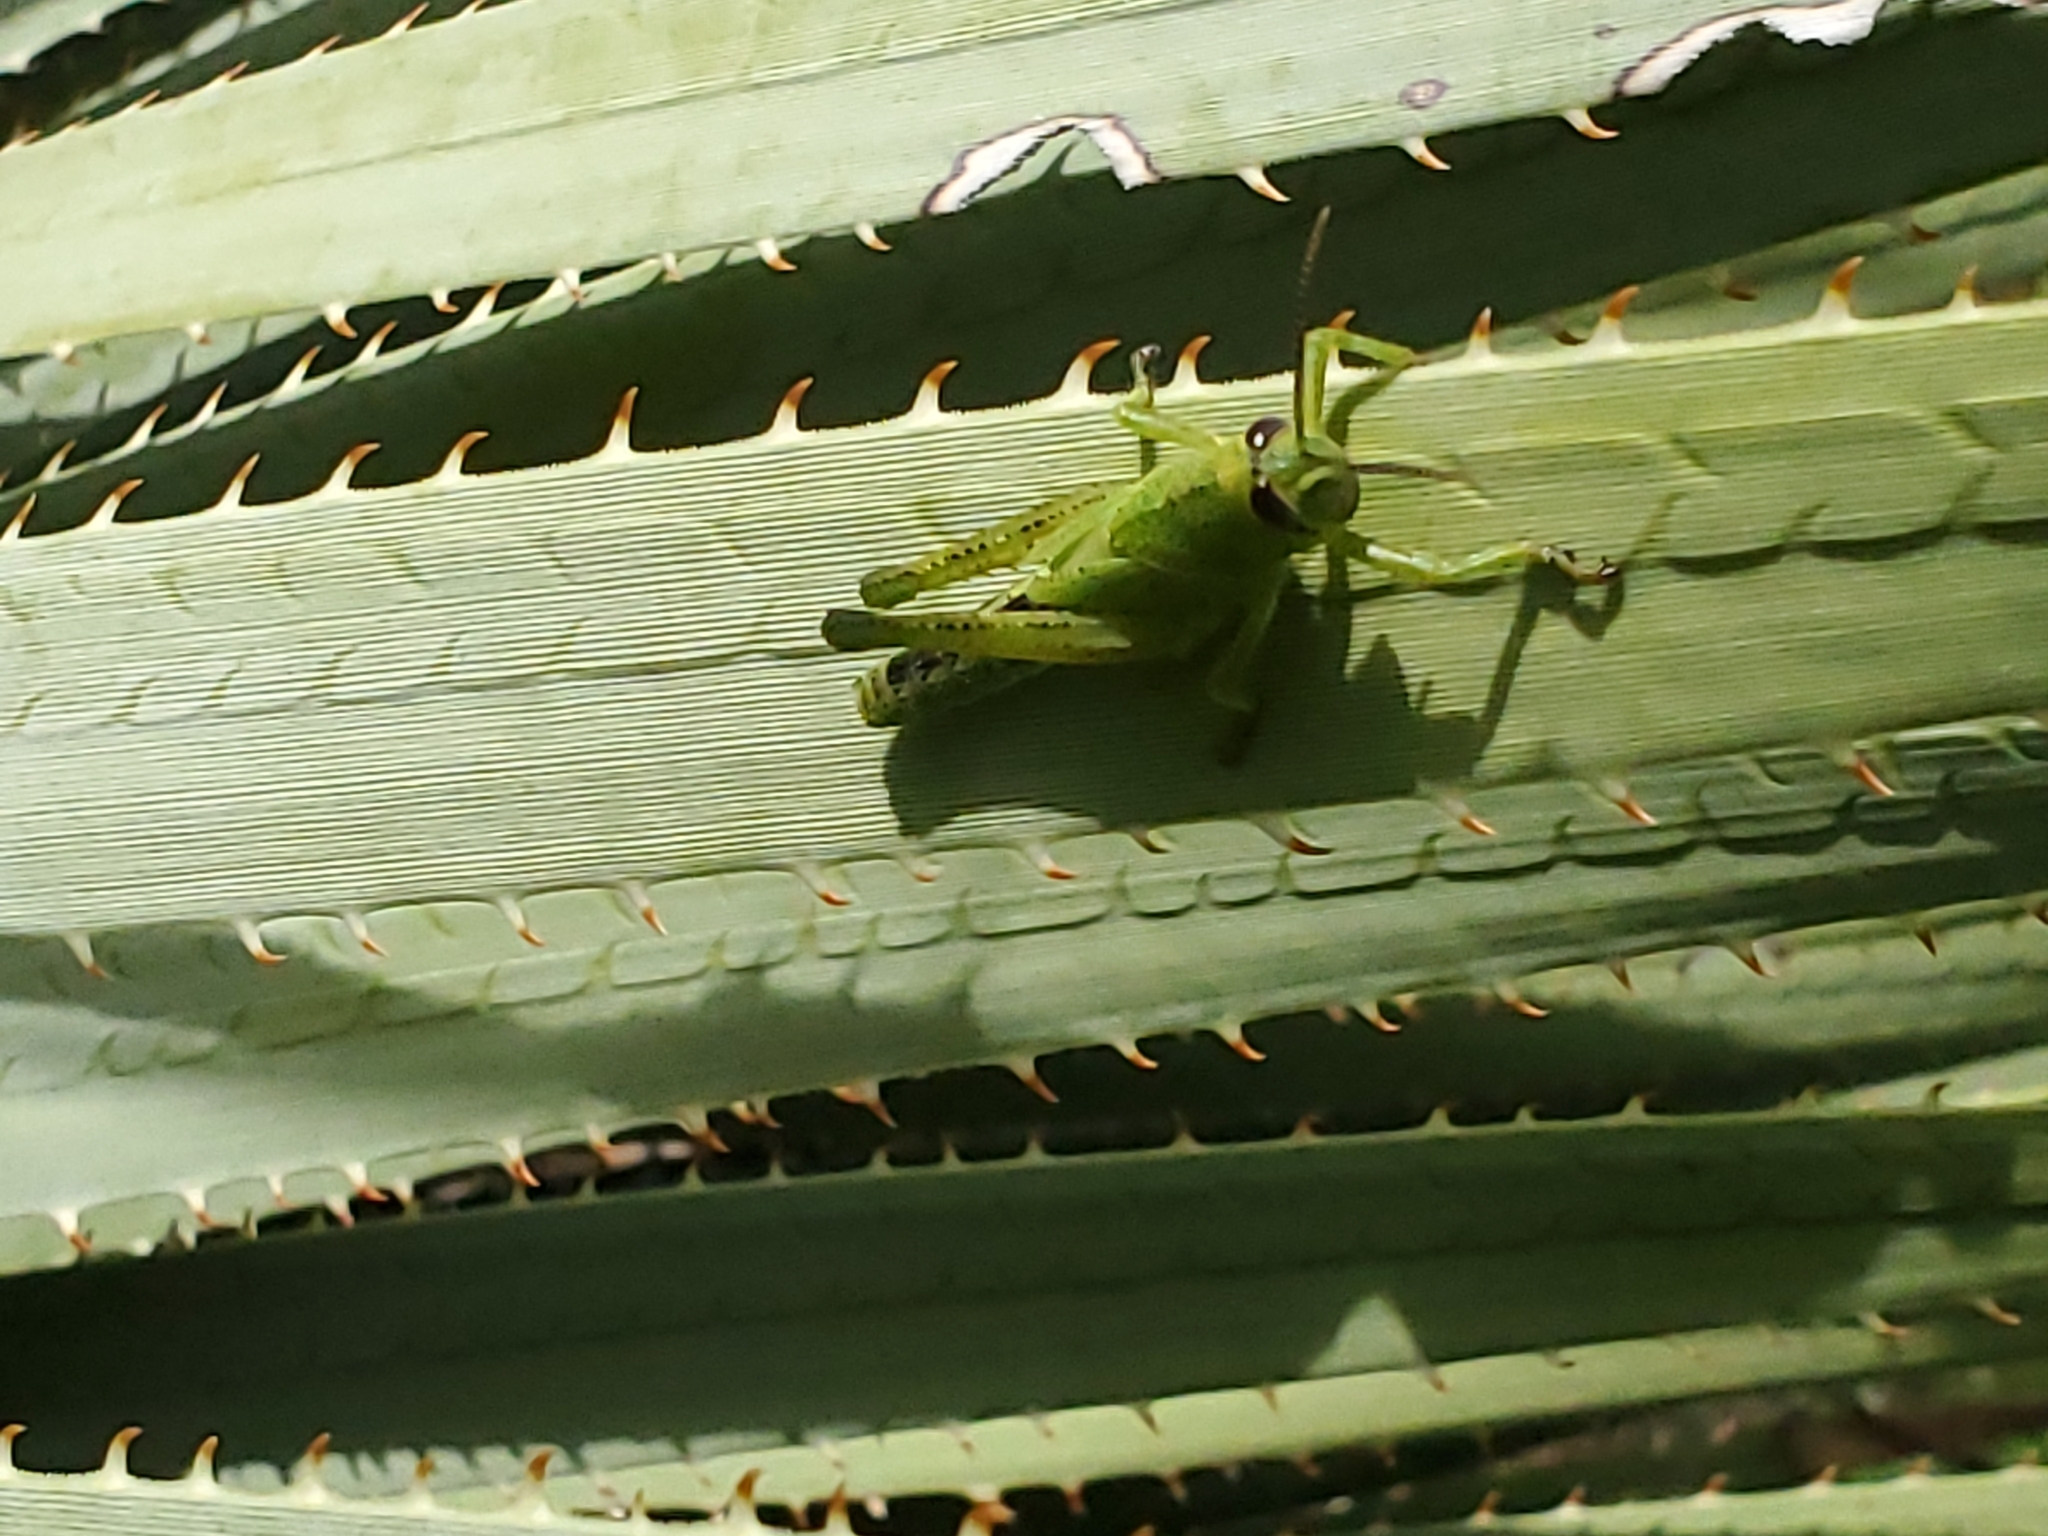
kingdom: Animalia
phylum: Arthropoda
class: Insecta
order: Orthoptera
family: Acrididae
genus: Schistocerca
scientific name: Schistocerca albolineata
